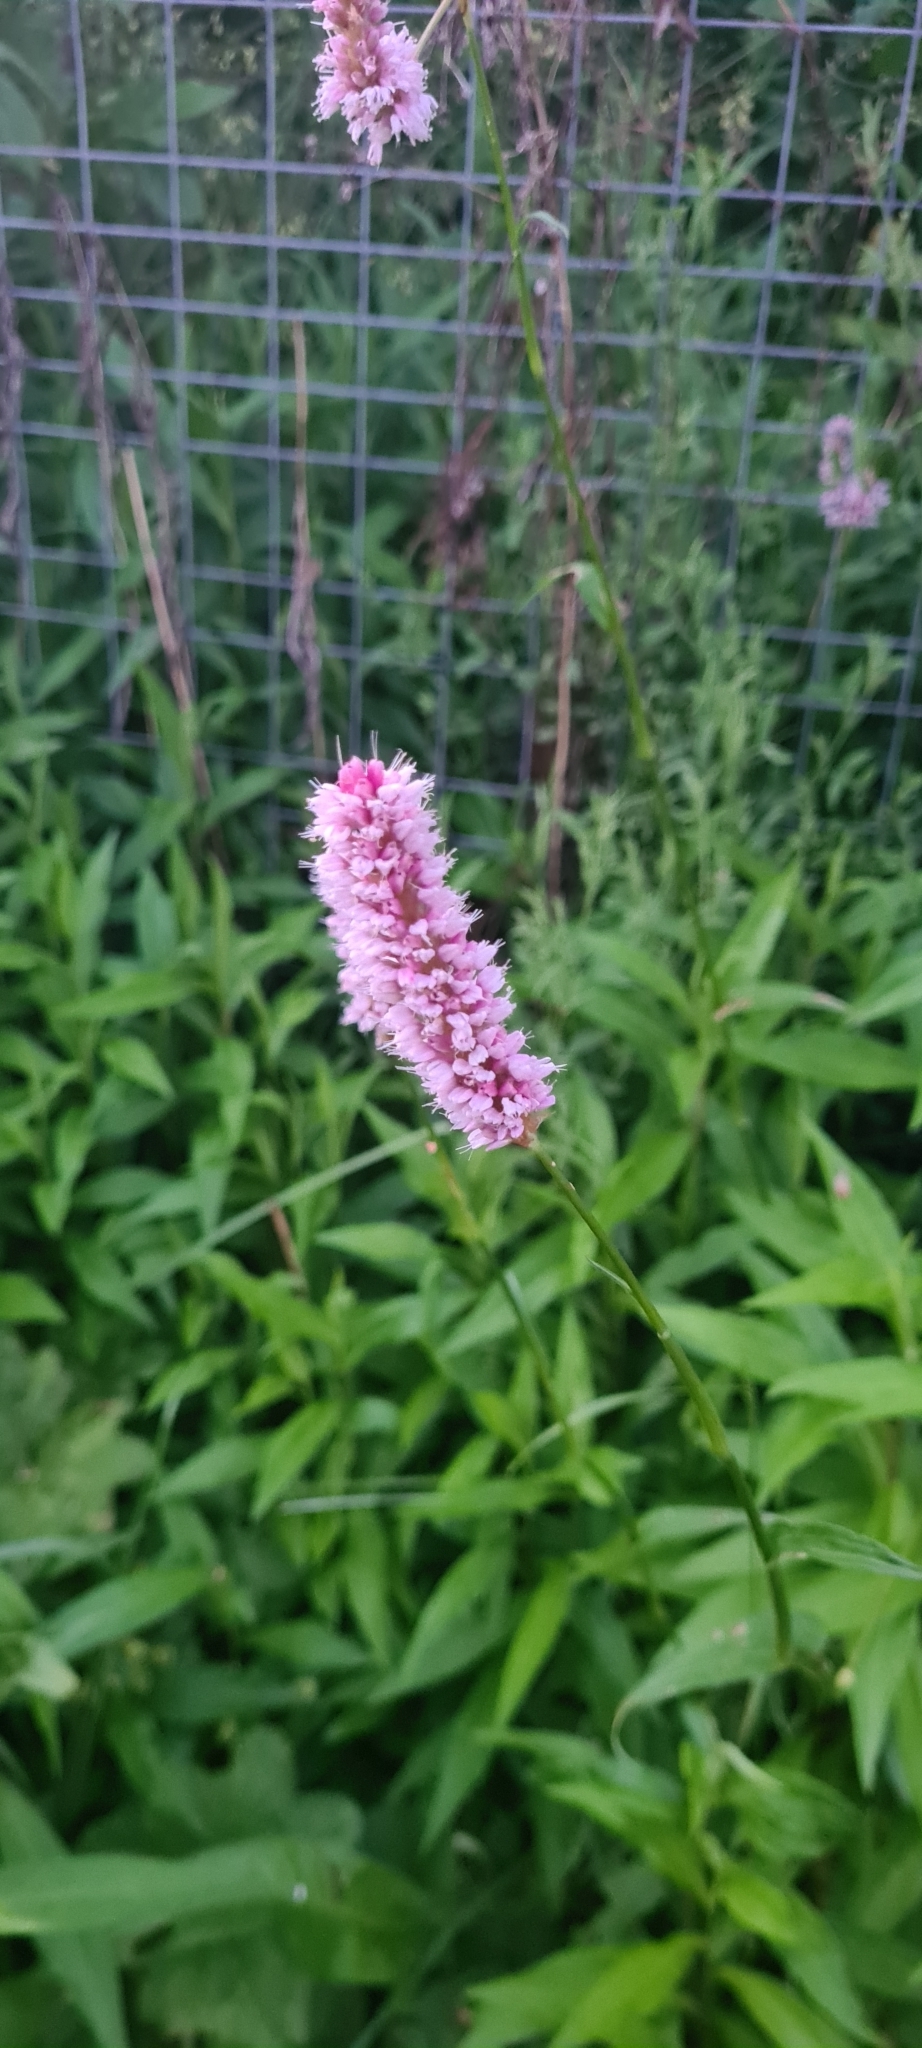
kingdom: Plantae
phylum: Tracheophyta
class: Magnoliopsida
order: Caryophyllales
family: Polygonaceae
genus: Bistorta
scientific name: Bistorta officinalis
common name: Common bistort
